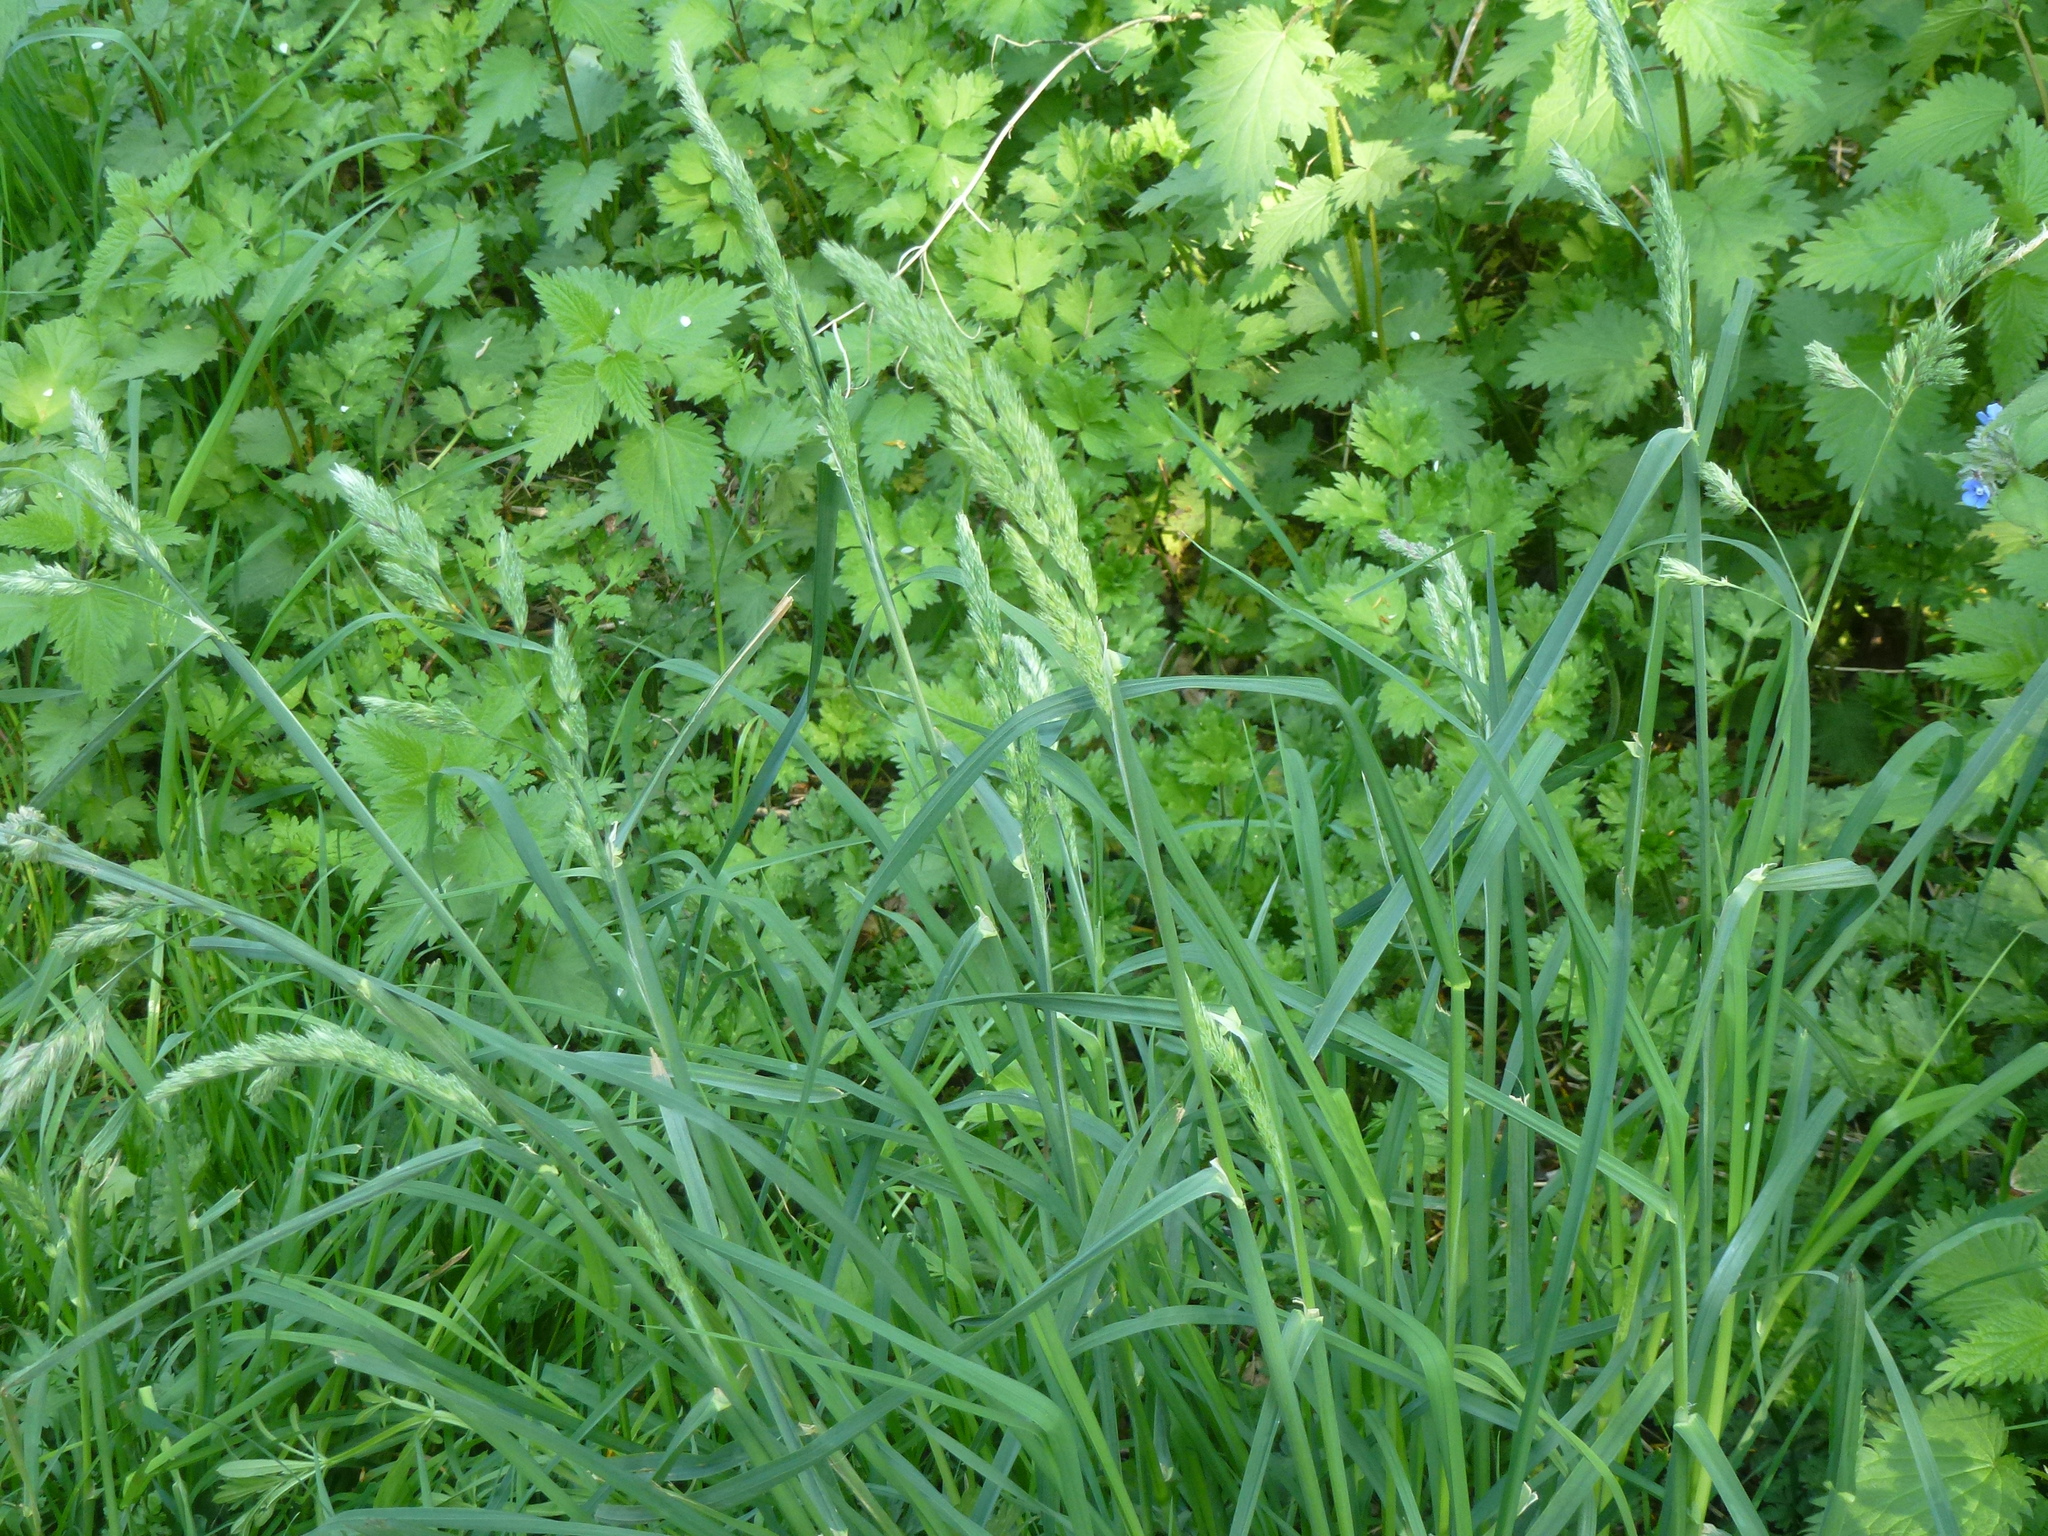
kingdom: Plantae
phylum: Tracheophyta
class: Liliopsida
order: Poales
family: Poaceae
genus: Dactylis
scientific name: Dactylis glomerata
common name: Orchardgrass
